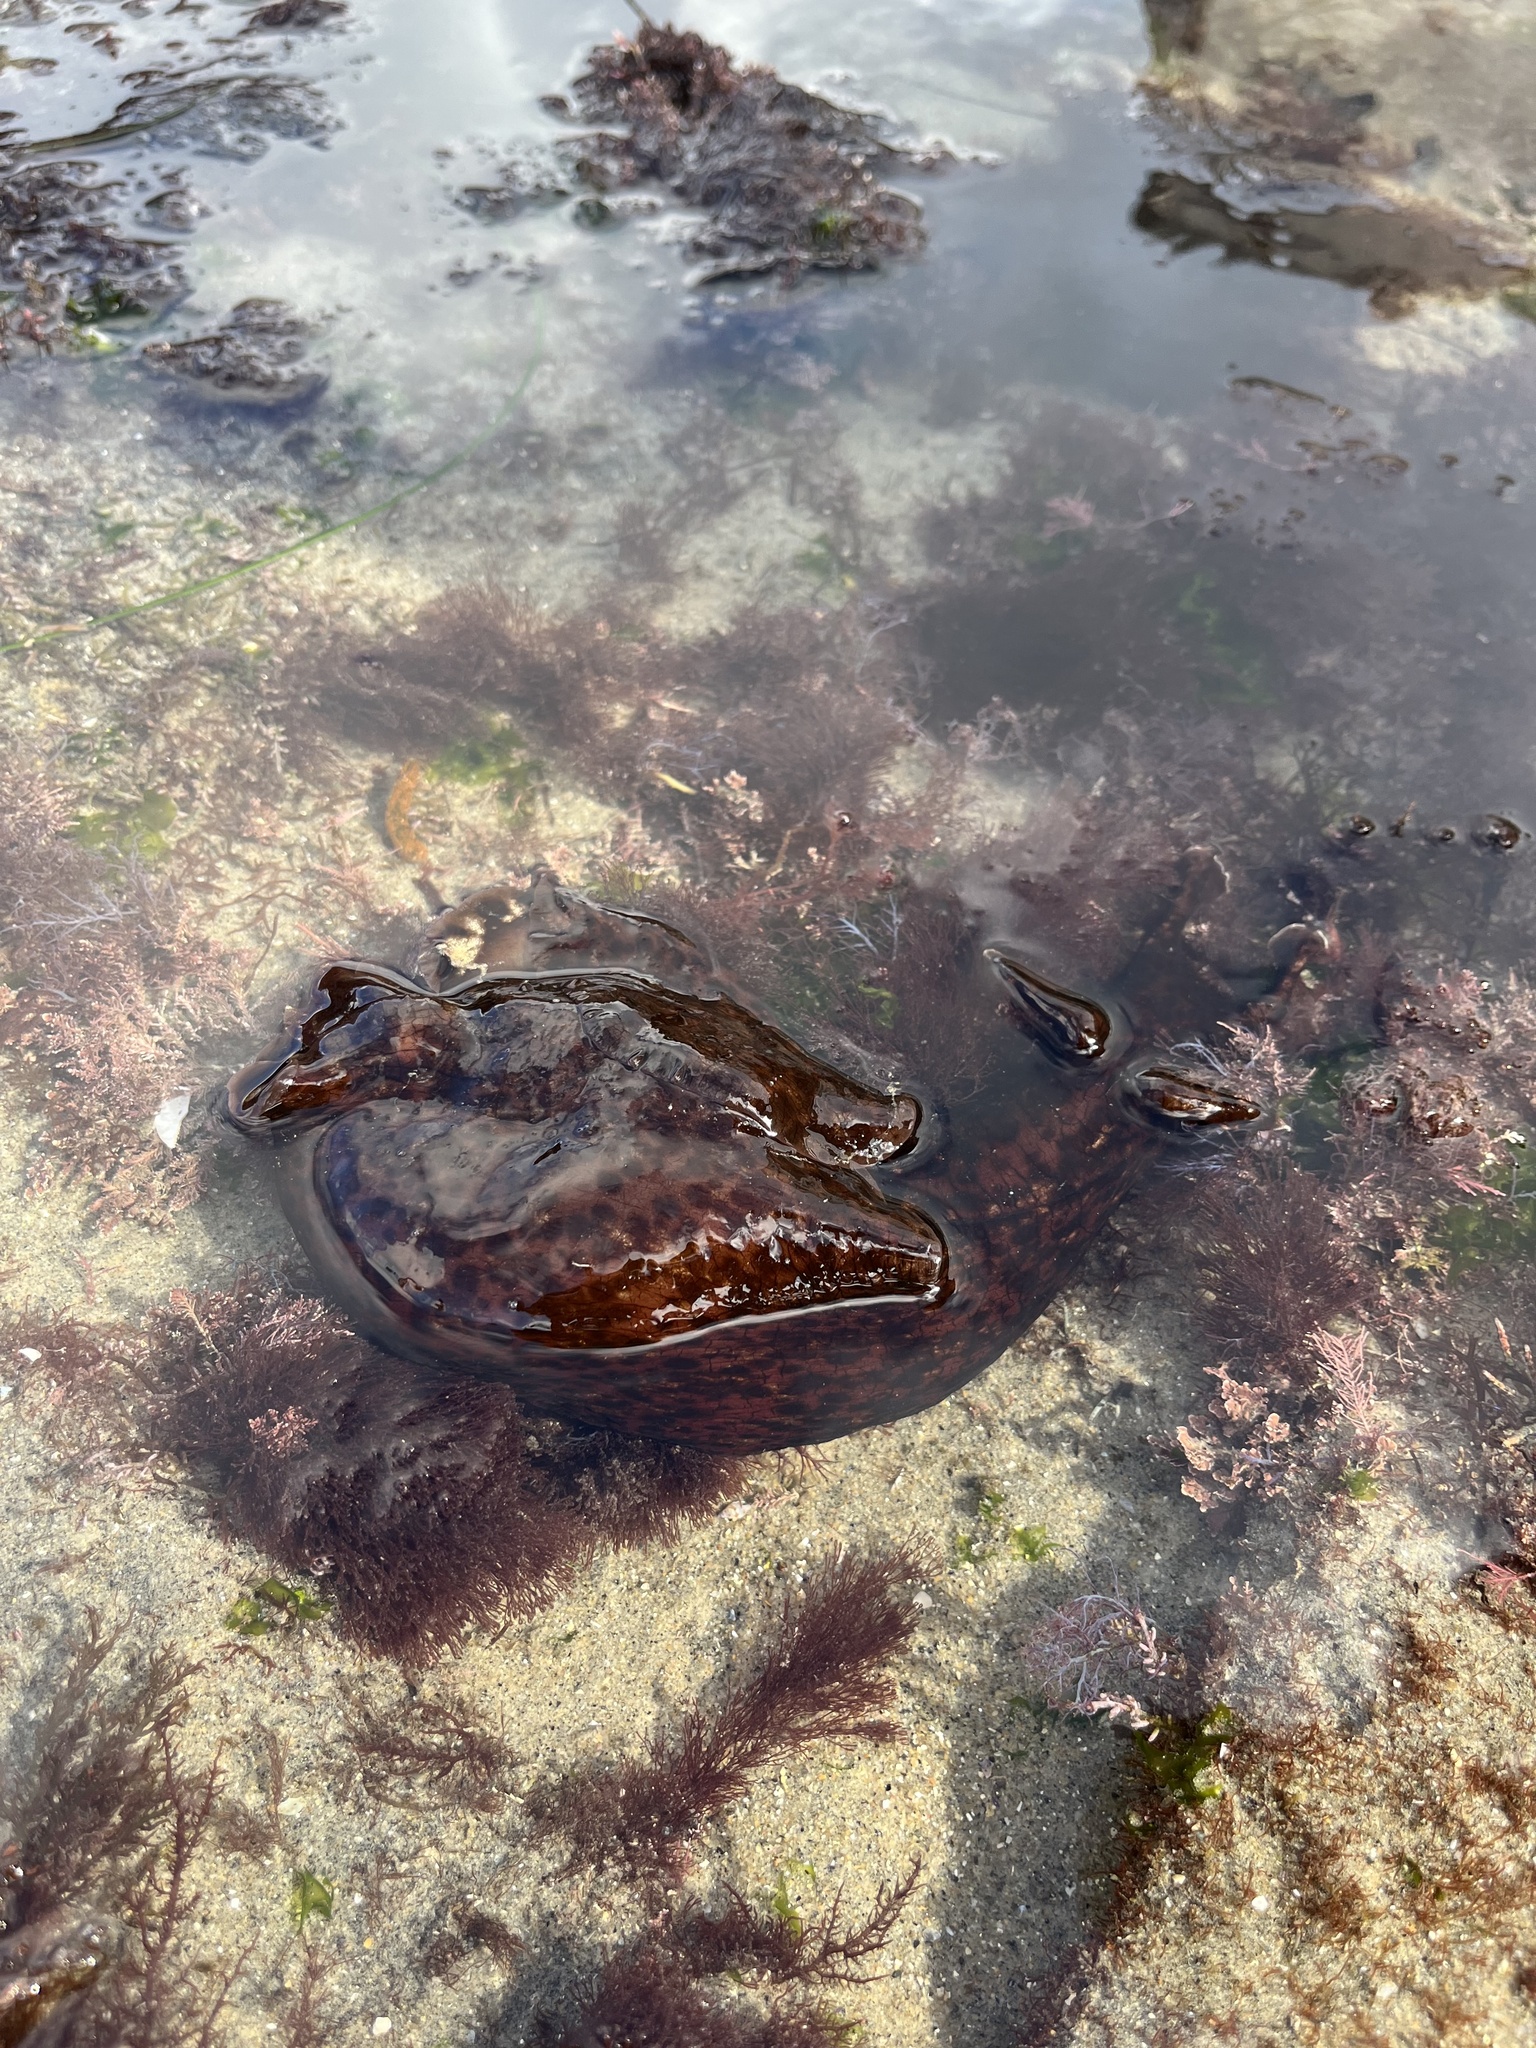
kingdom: Animalia
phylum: Mollusca
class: Gastropoda
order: Aplysiida
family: Aplysiidae
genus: Aplysia
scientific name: Aplysia californica
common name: California seahare
